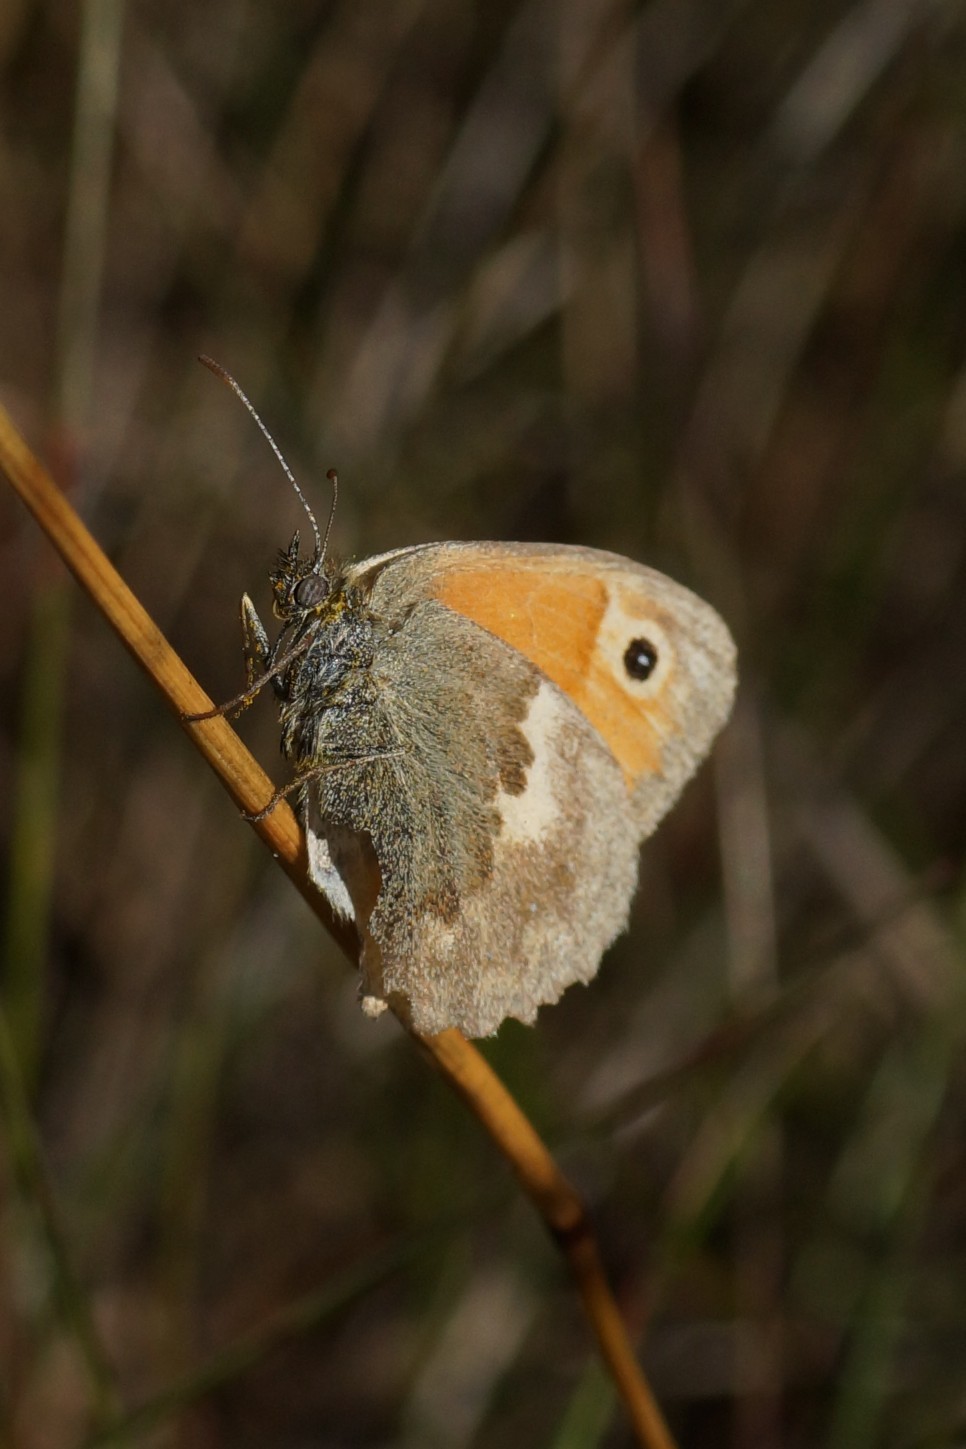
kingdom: Animalia
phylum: Arthropoda
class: Insecta
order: Lepidoptera
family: Nymphalidae
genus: Coenonympha
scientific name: Coenonympha pamphilus
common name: Small heath
